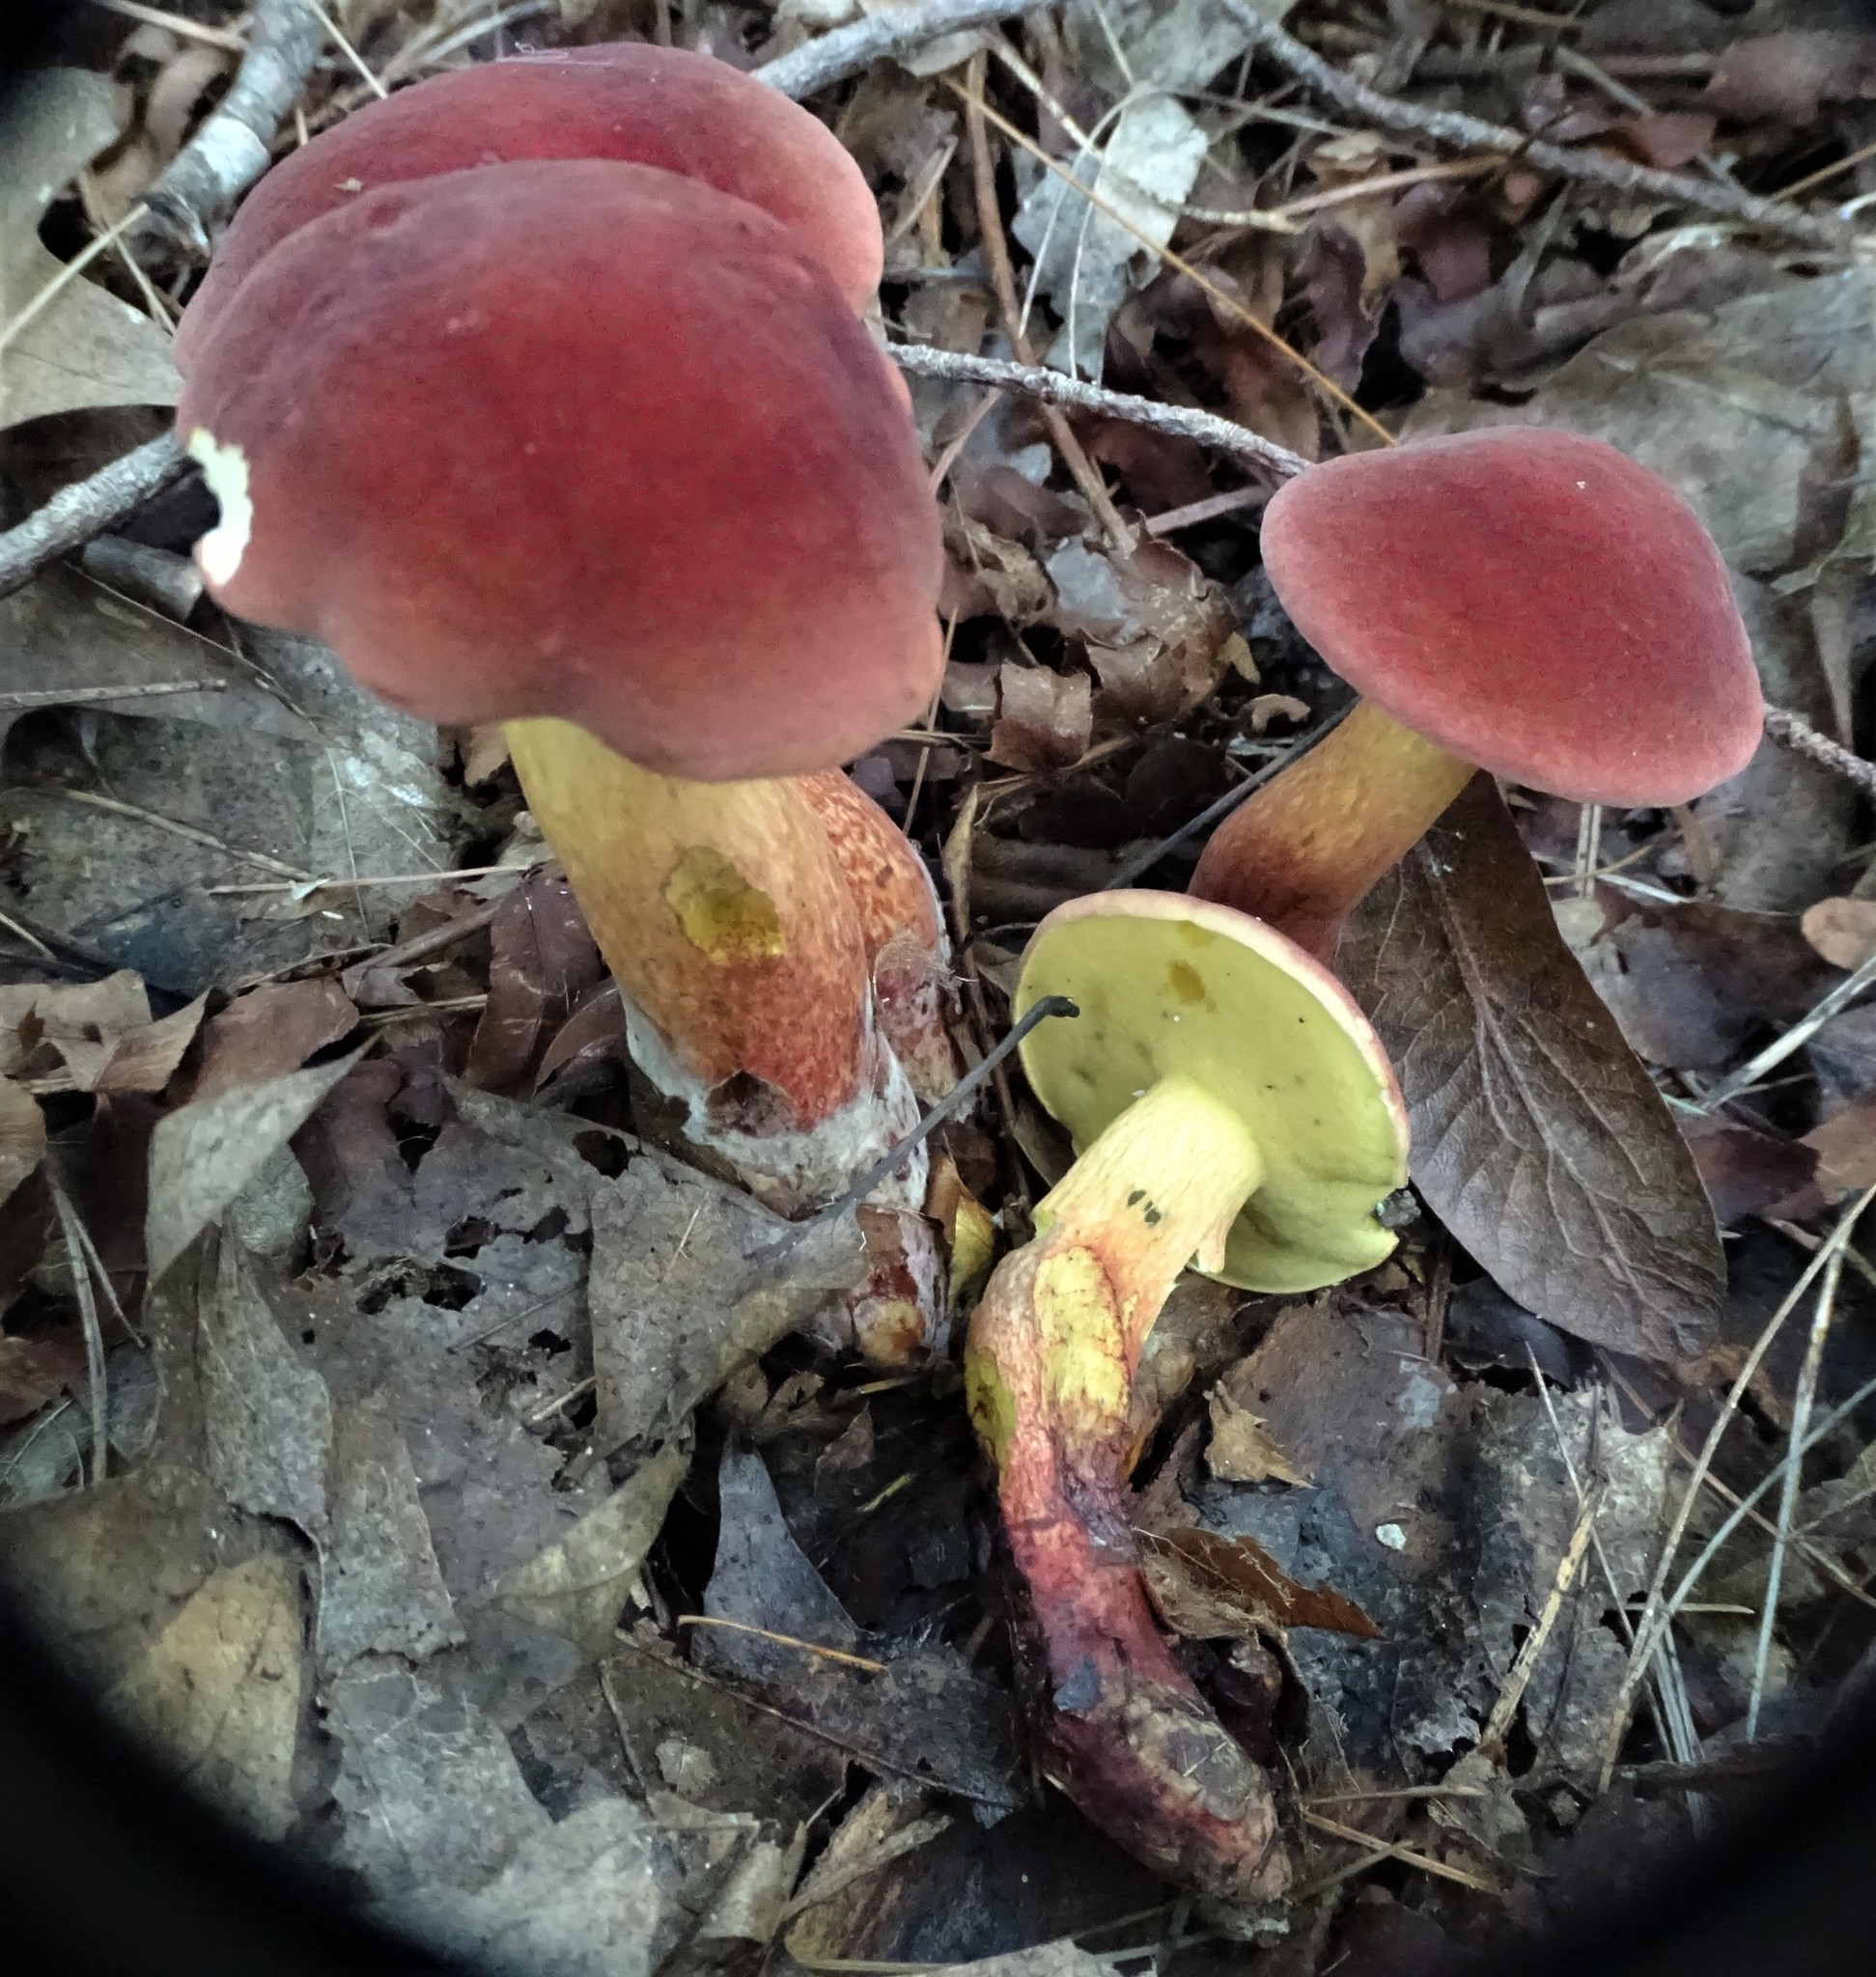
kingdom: Fungi
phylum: Basidiomycota
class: Agaricomycetes
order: Boletales
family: Boletaceae
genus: Baorangia
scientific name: Baorangia bicolor
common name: Two-colored bolete
